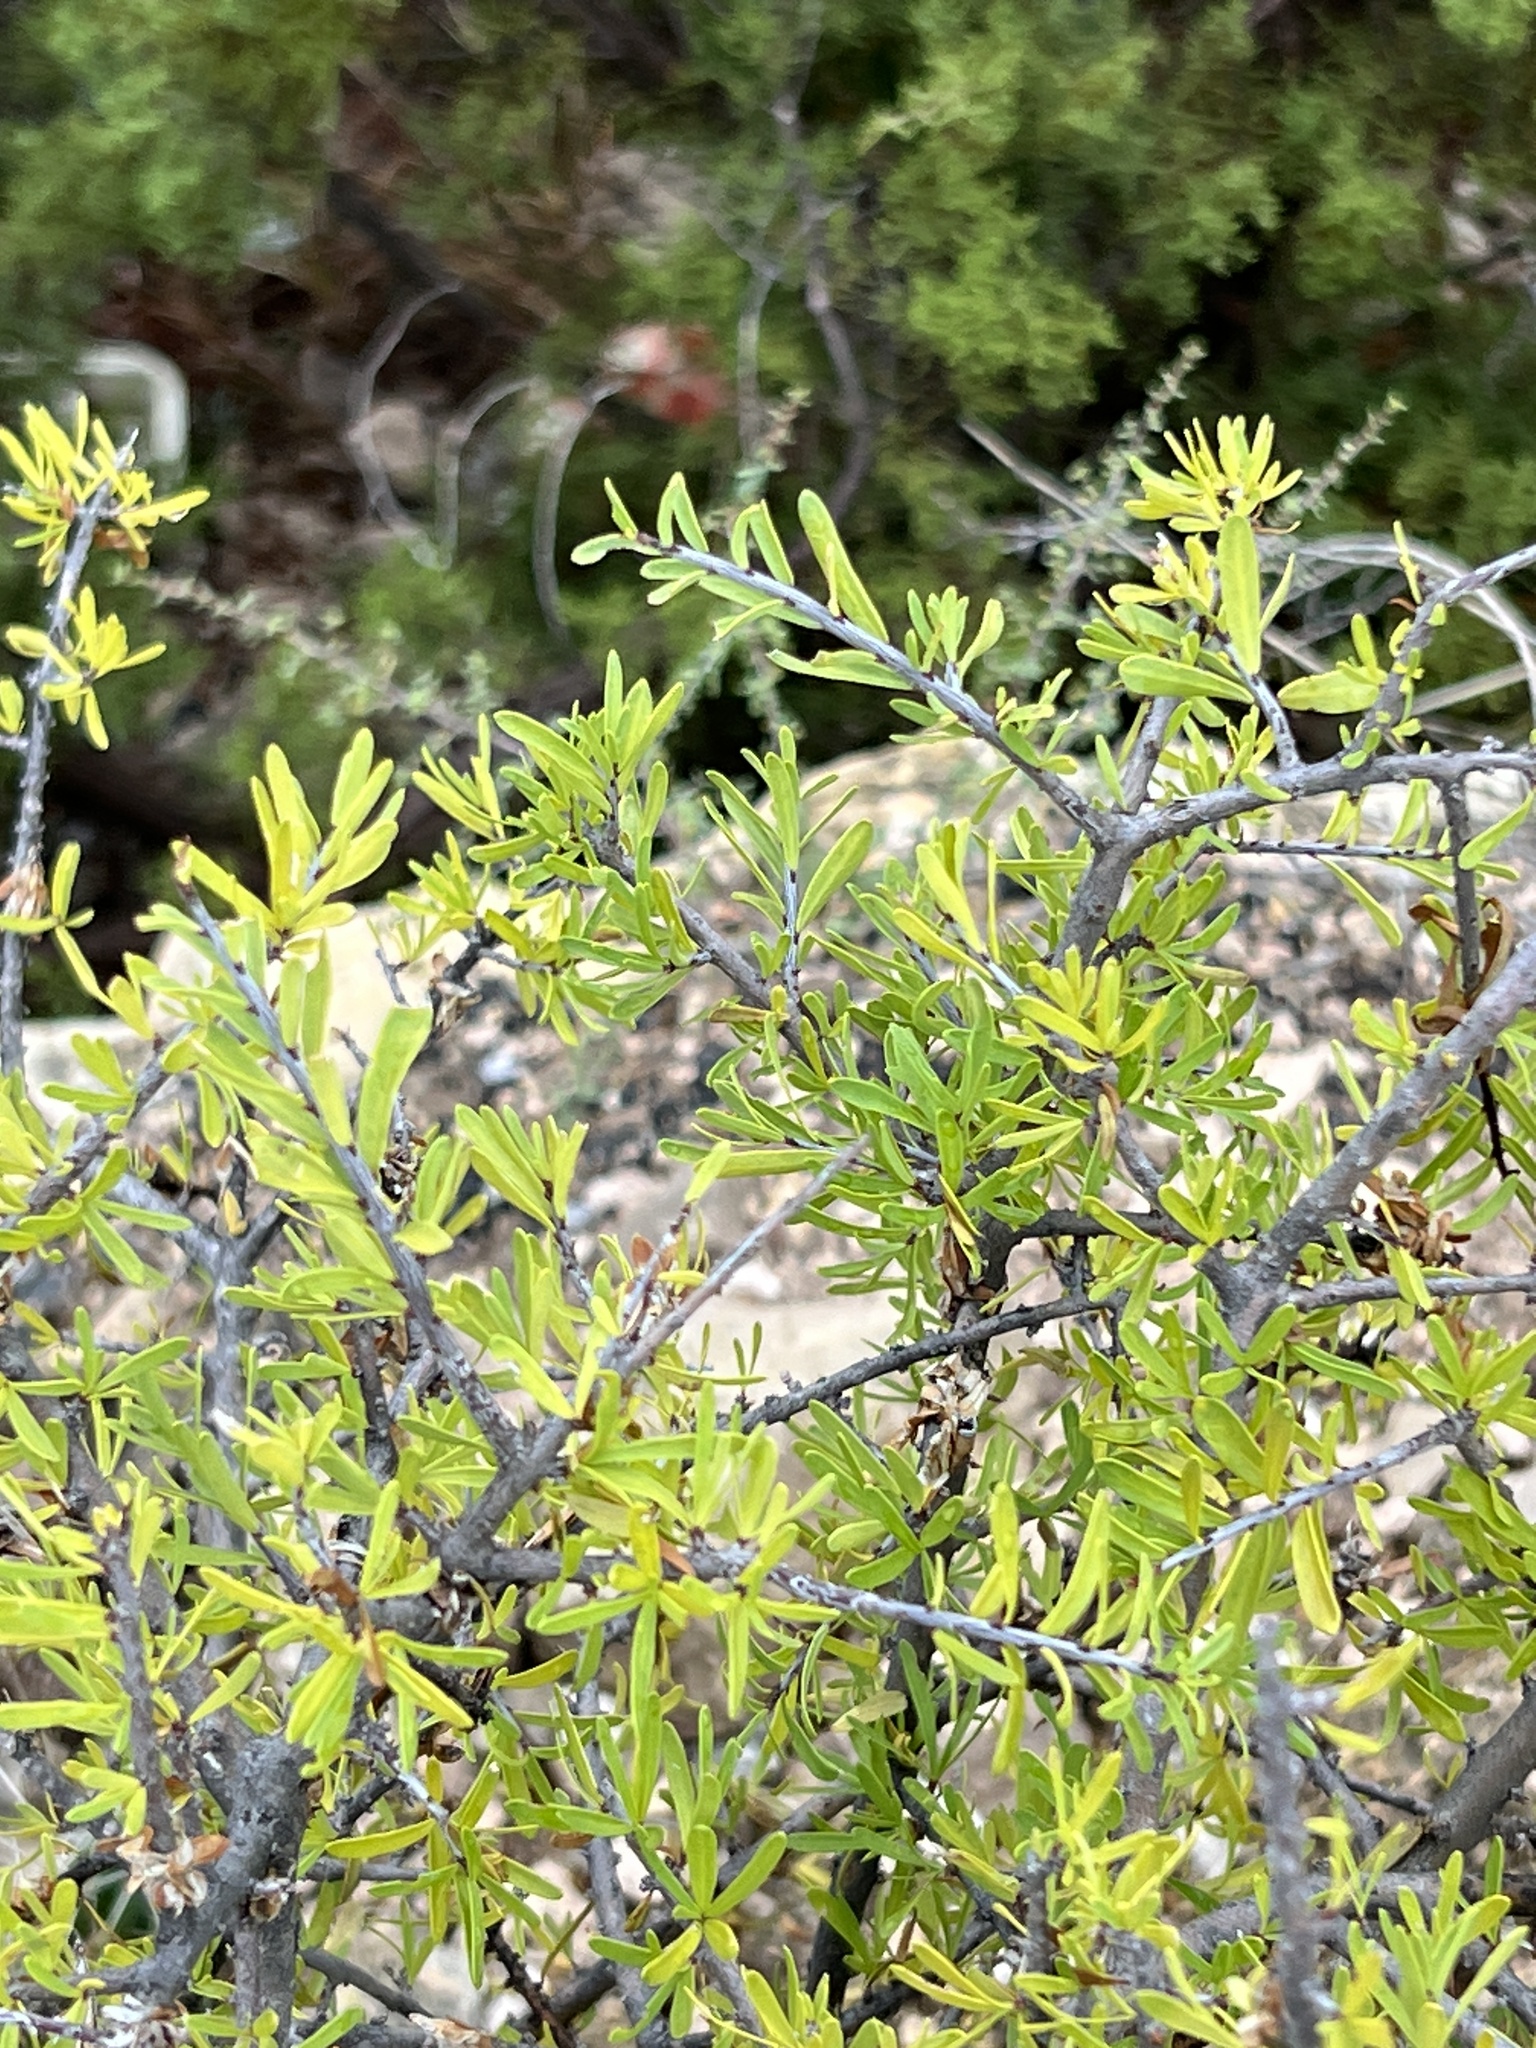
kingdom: Plantae
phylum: Tracheophyta
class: Magnoliopsida
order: Lamiales
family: Oleaceae
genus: Forestiera
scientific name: Forestiera angustifolia
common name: Elbowbush
